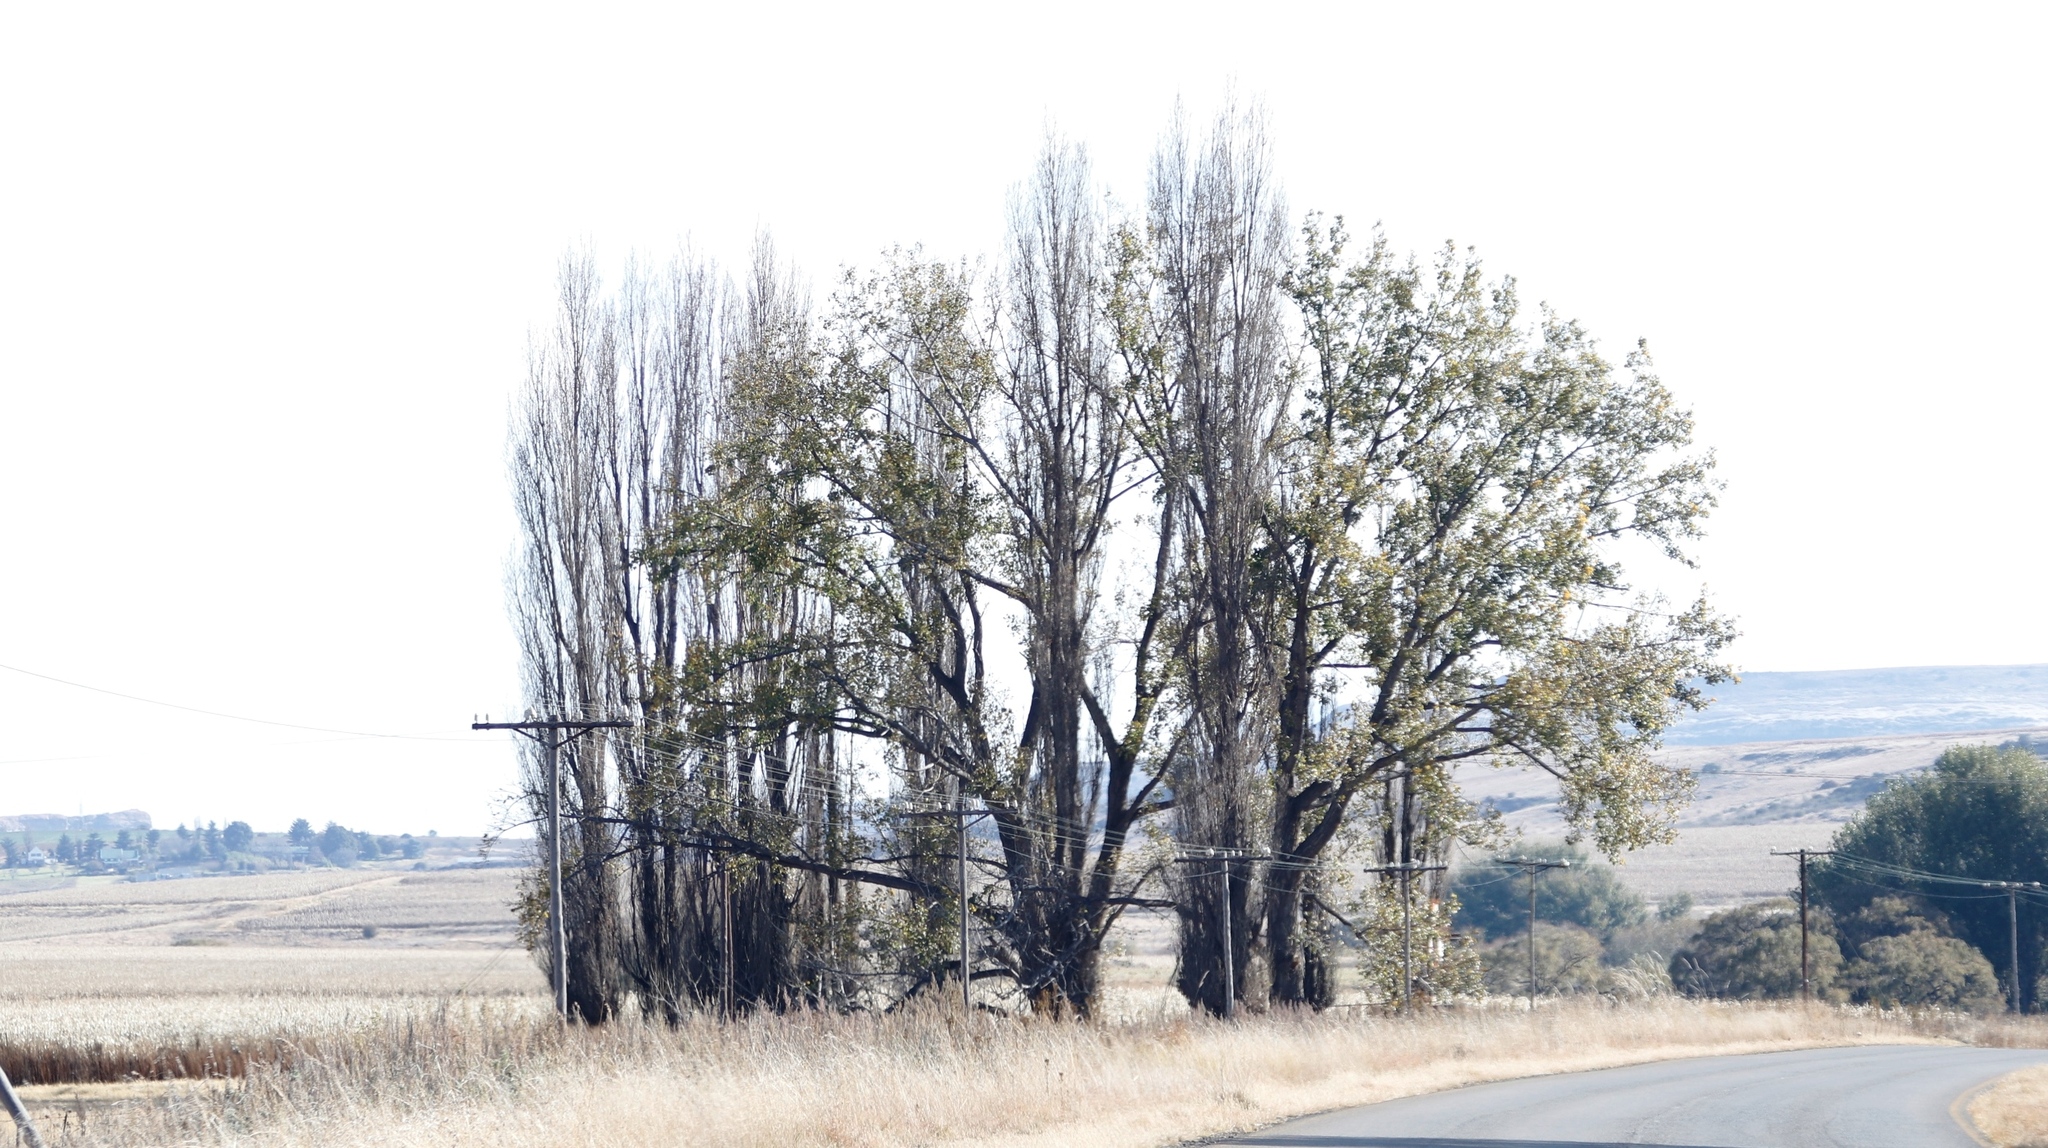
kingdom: Plantae
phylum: Tracheophyta
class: Magnoliopsida
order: Malpighiales
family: Salicaceae
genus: Populus
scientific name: Populus nigra
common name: Black poplar
